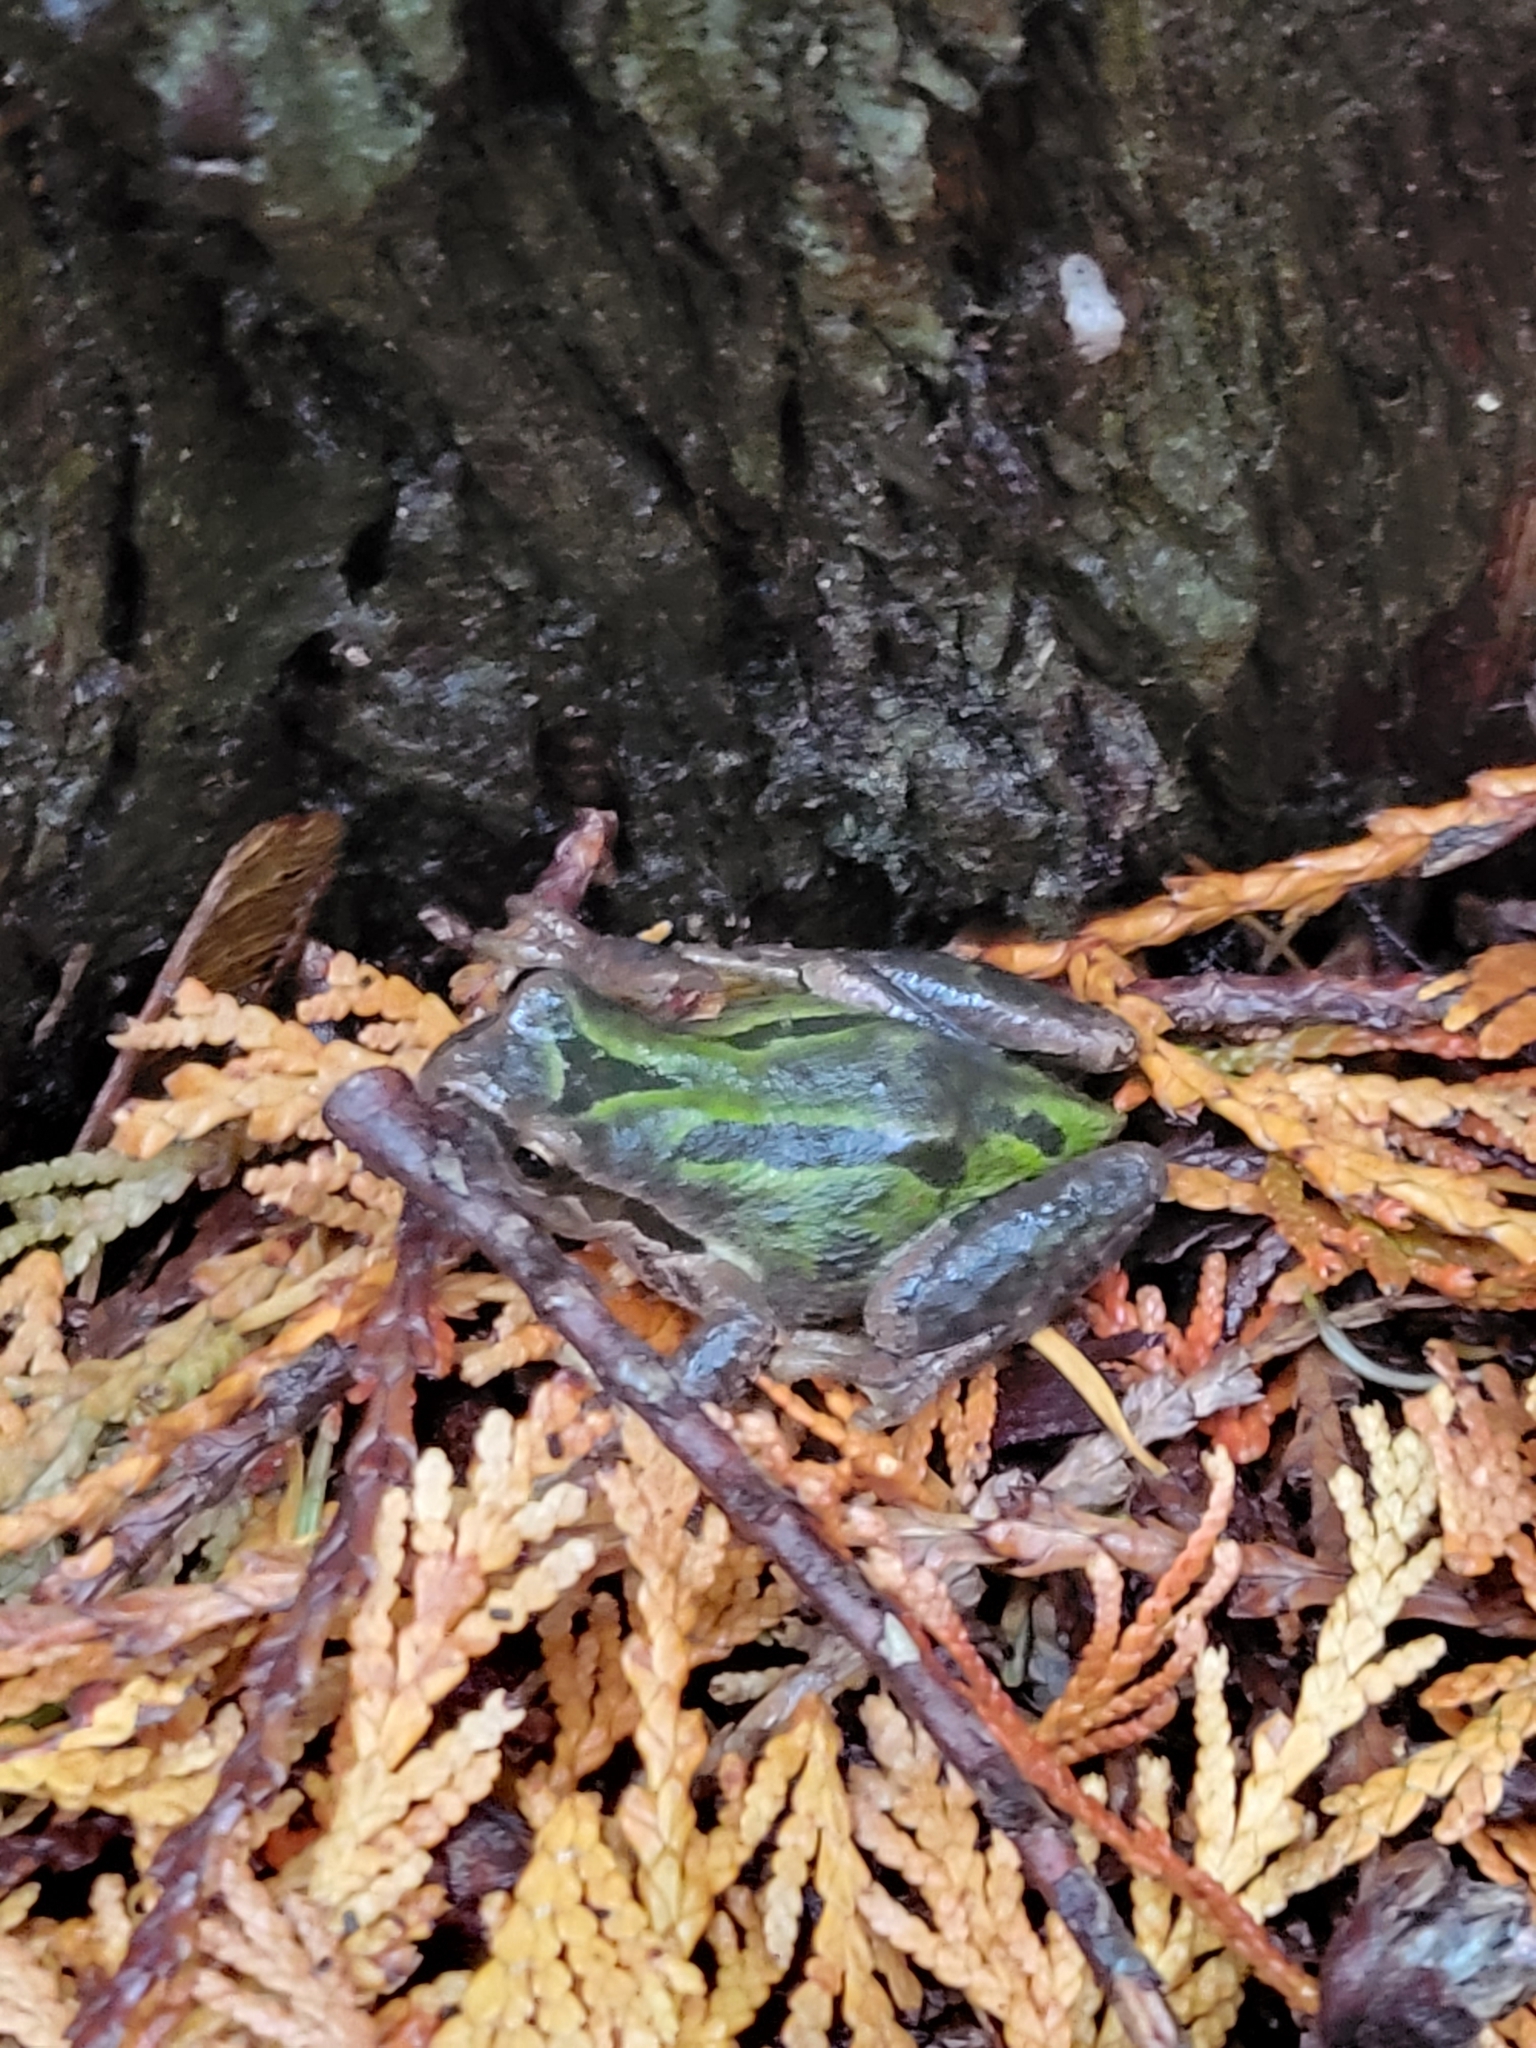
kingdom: Animalia
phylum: Chordata
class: Amphibia
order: Anura
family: Hylidae
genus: Pseudacris
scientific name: Pseudacris regilla
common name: Pacific chorus frog
